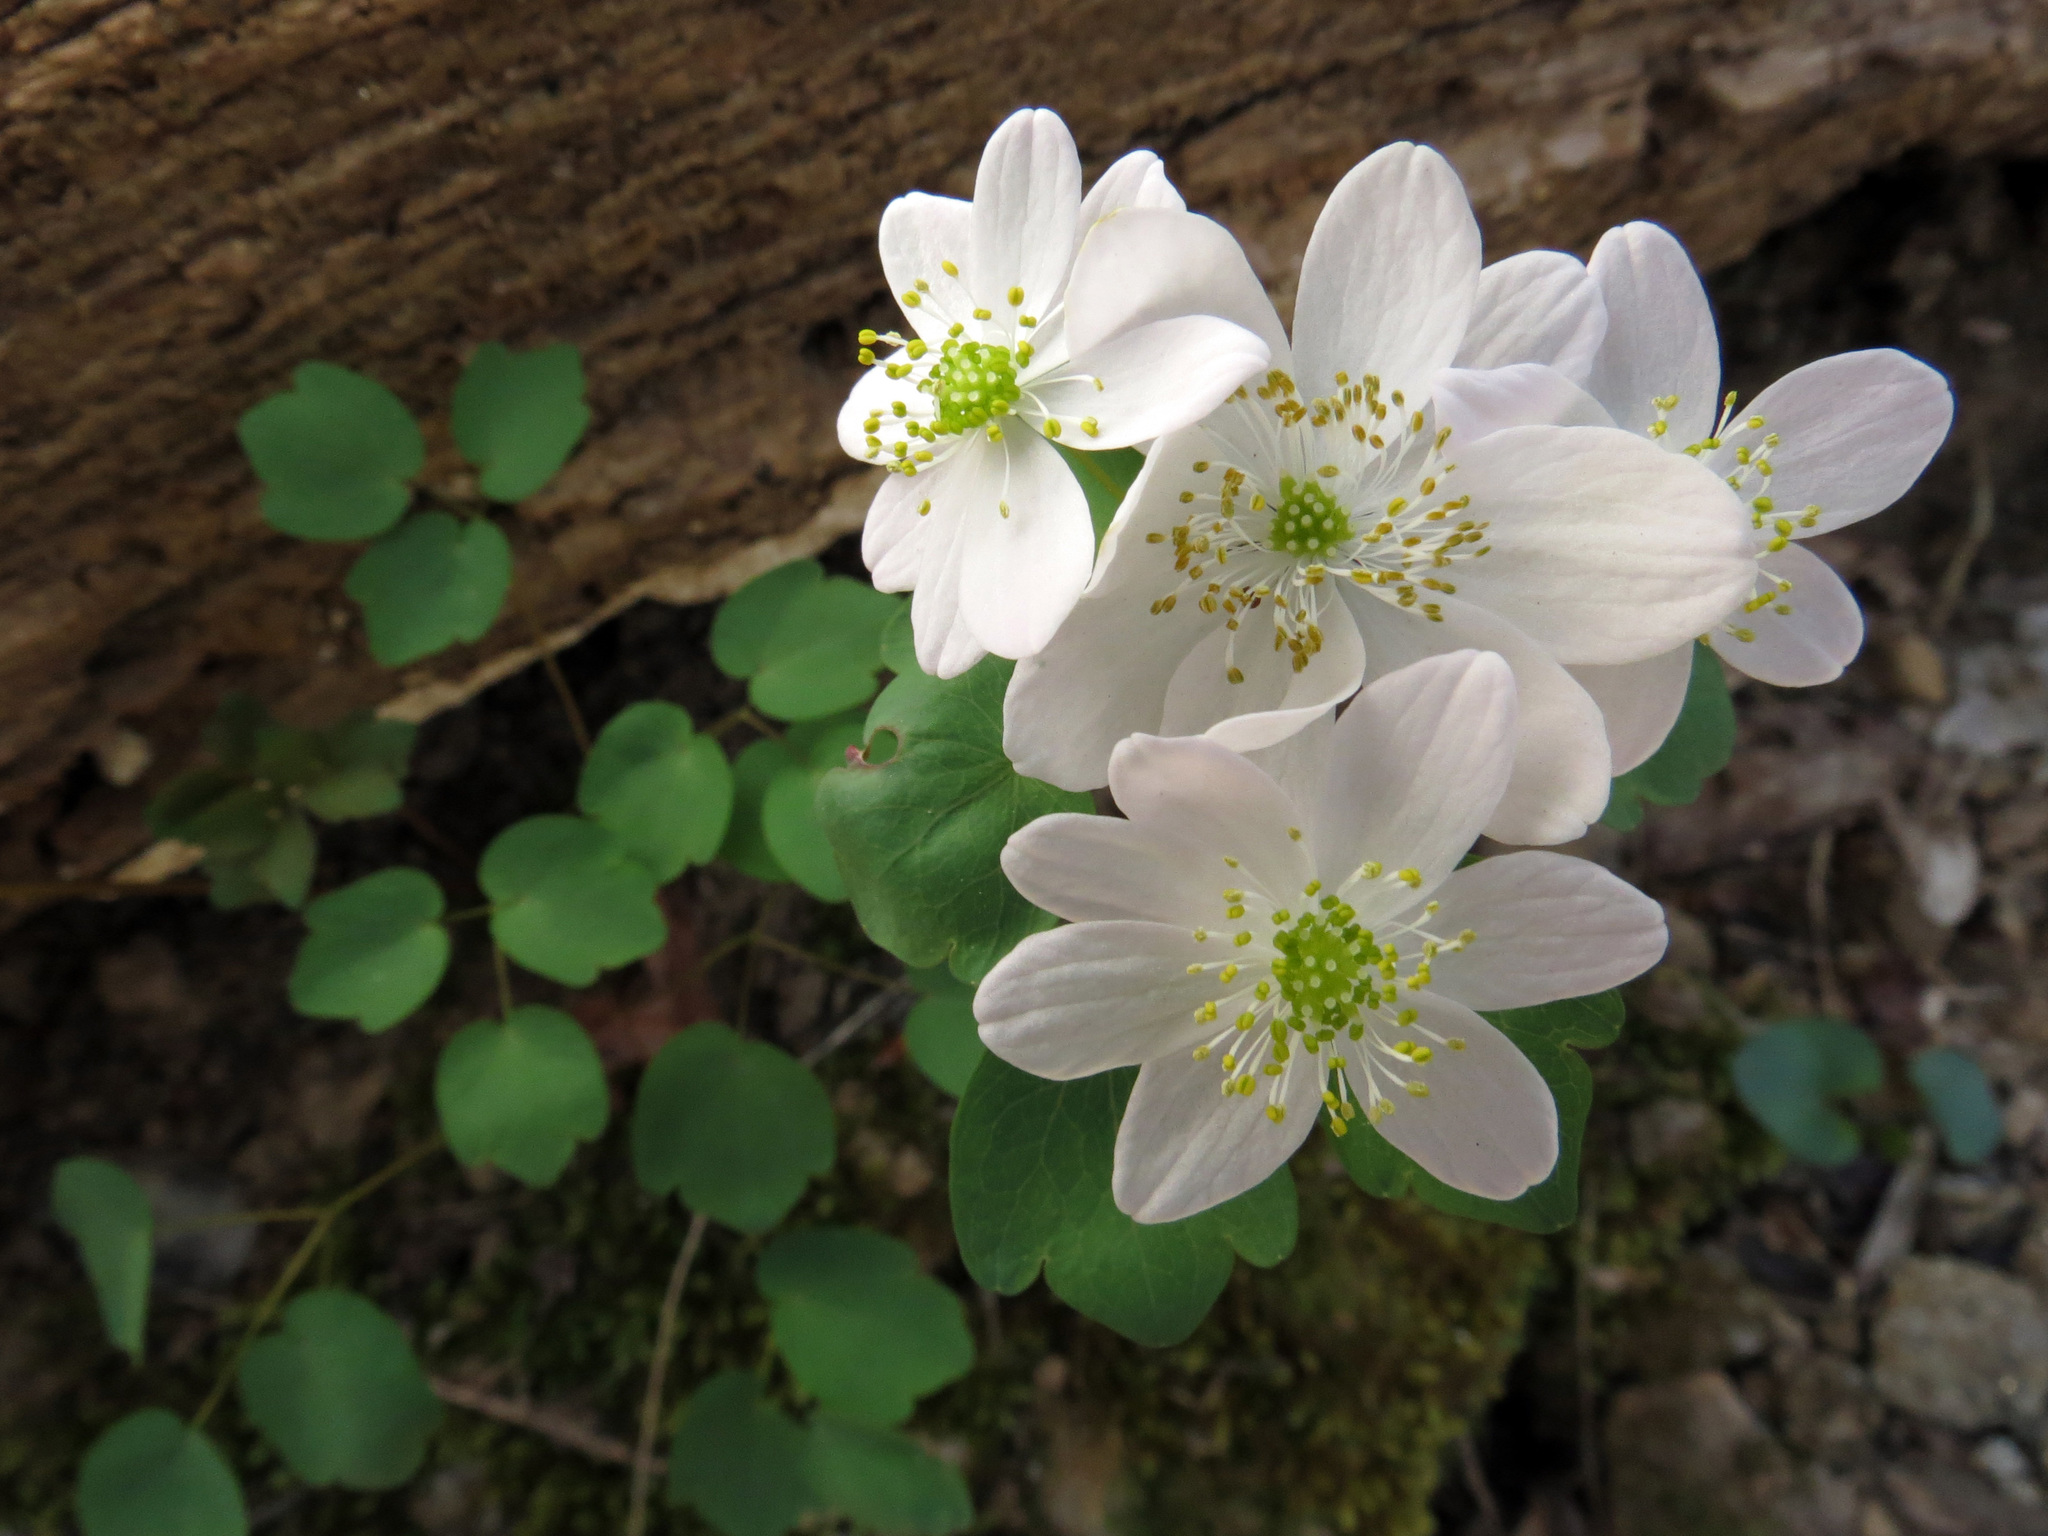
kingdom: Plantae
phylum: Tracheophyta
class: Magnoliopsida
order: Ranunculales
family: Ranunculaceae
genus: Thalictrum
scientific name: Thalictrum thalictroides
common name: Rue-anemone
